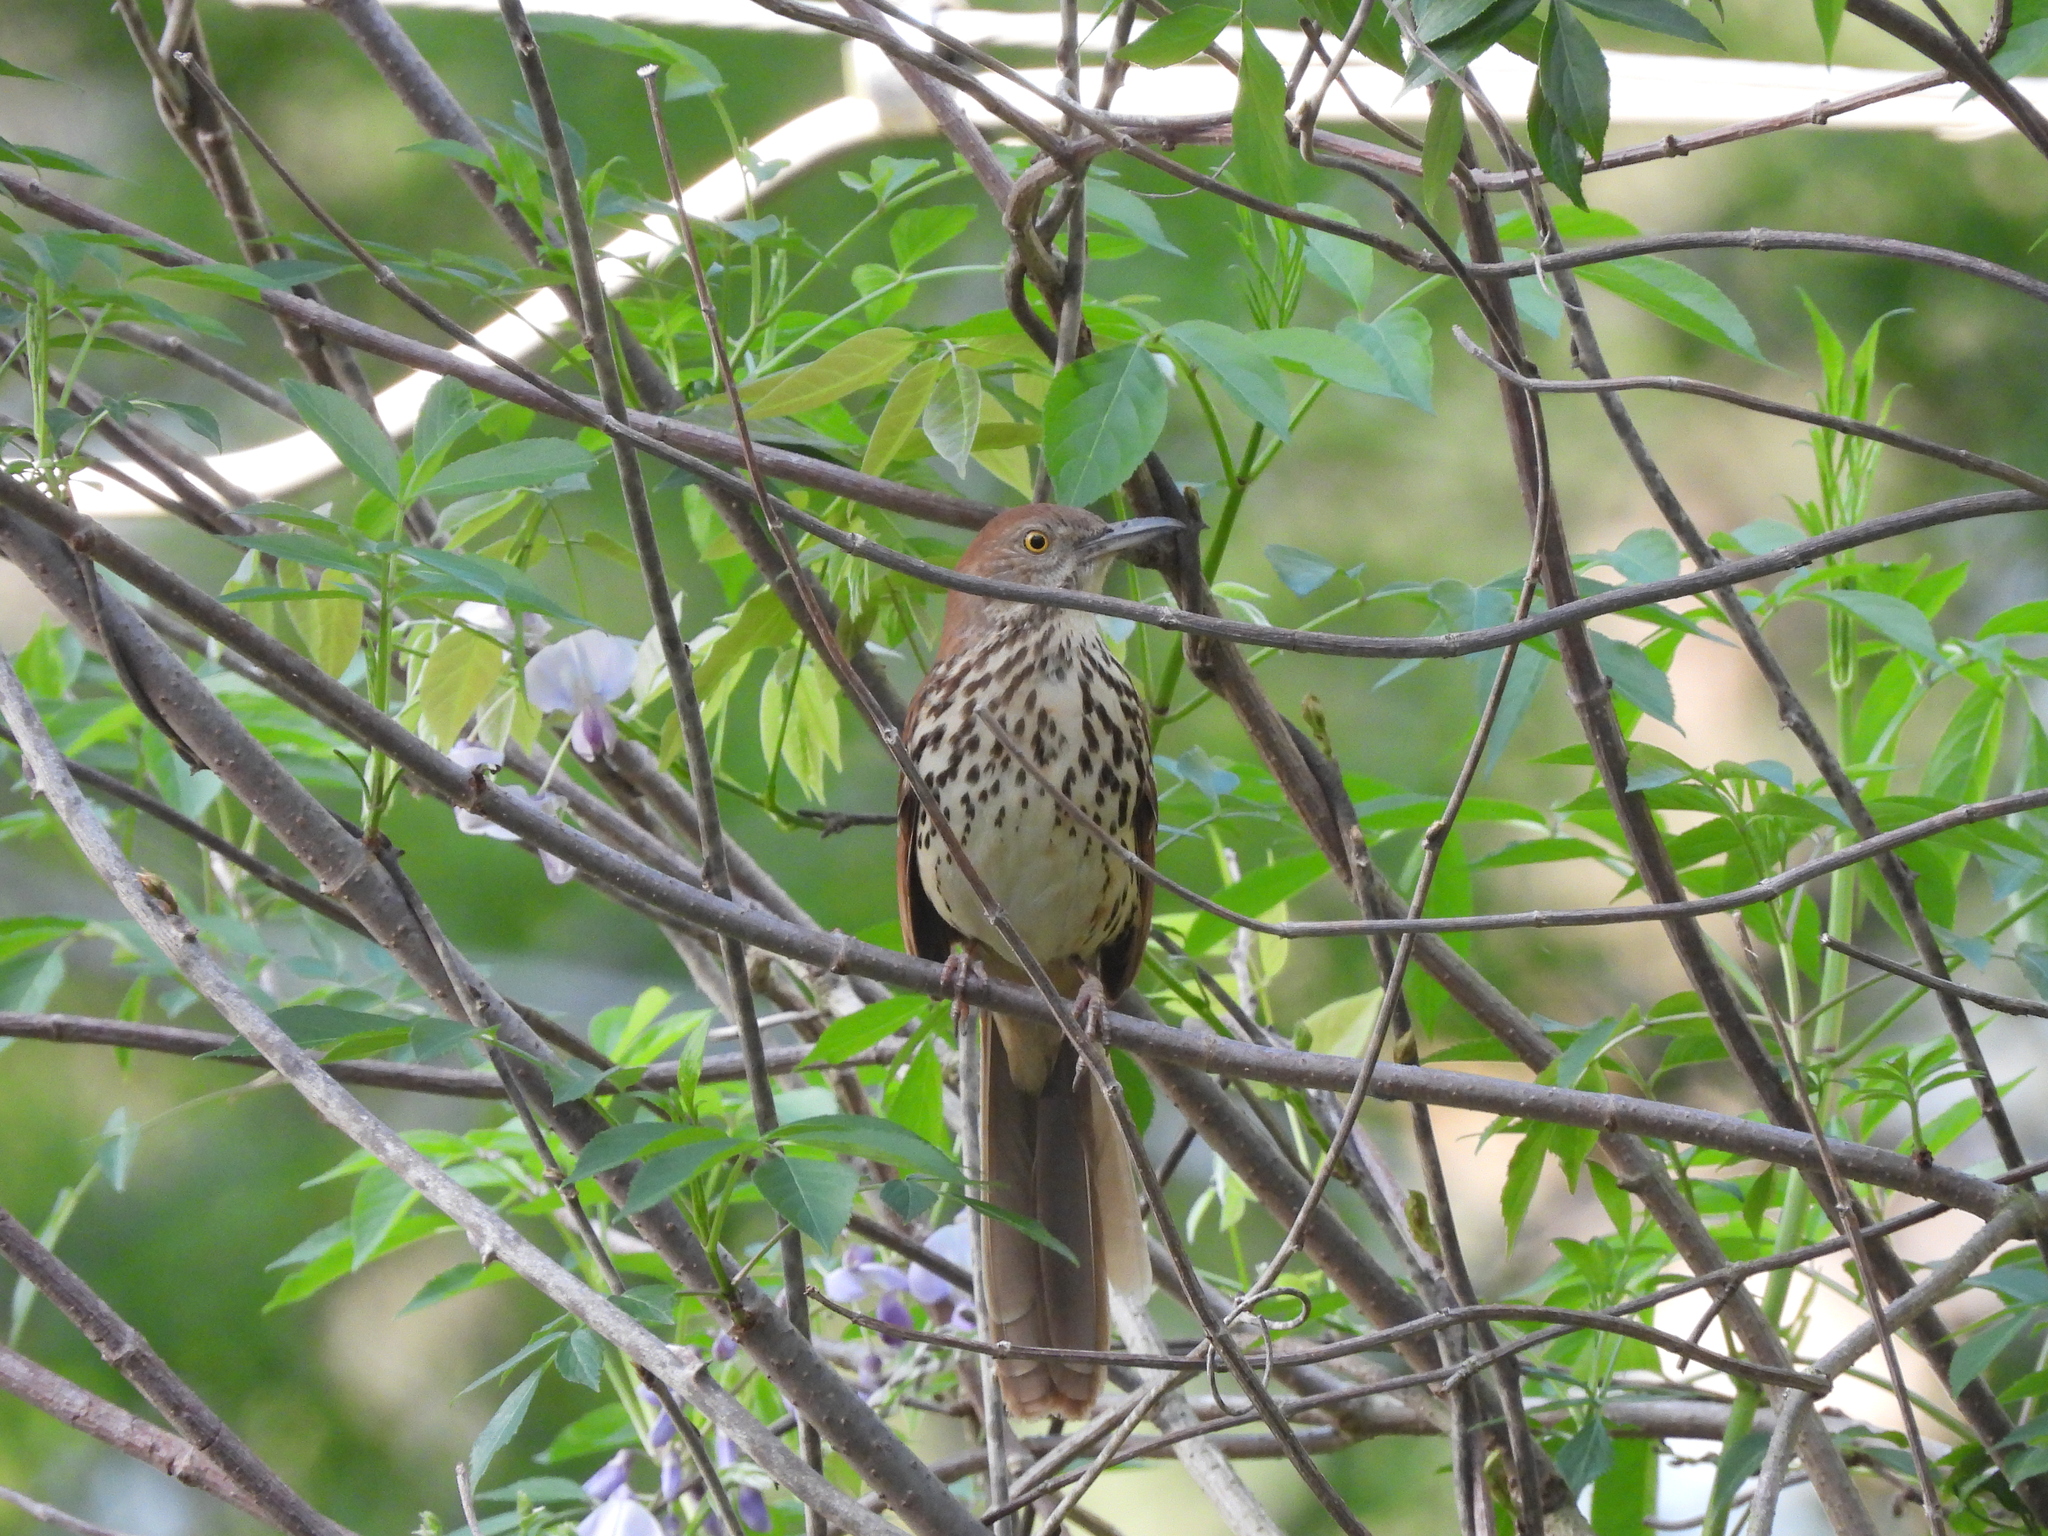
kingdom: Animalia
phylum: Chordata
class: Aves
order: Passeriformes
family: Mimidae
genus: Toxostoma
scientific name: Toxostoma rufum
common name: Brown thrasher
